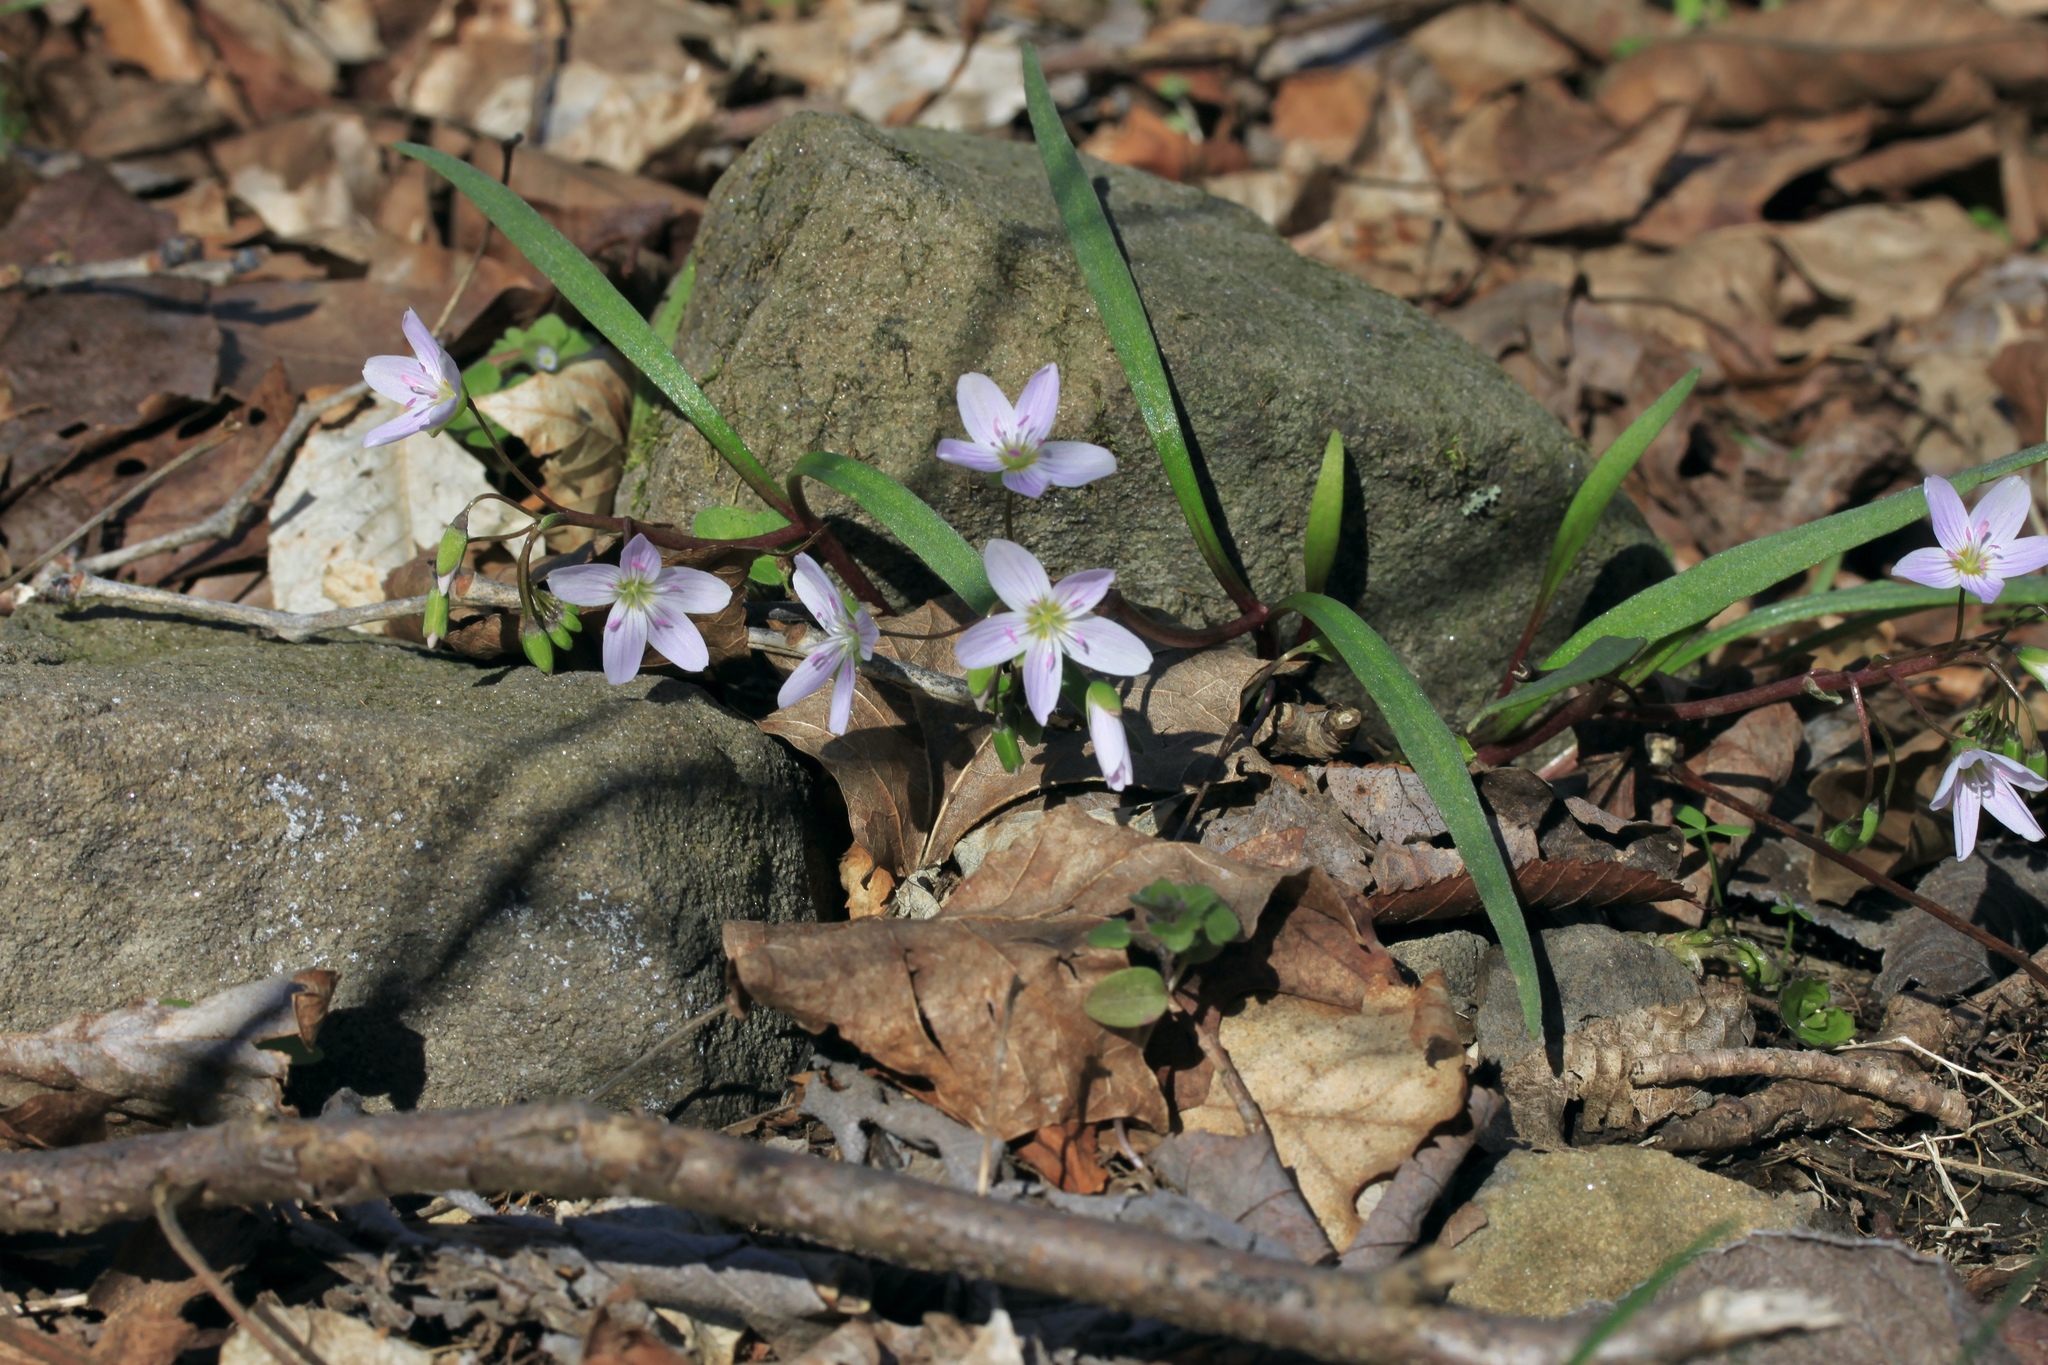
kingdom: Plantae
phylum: Tracheophyta
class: Magnoliopsida
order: Caryophyllales
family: Montiaceae
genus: Claytonia
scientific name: Claytonia virginica
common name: Virginia springbeauty
